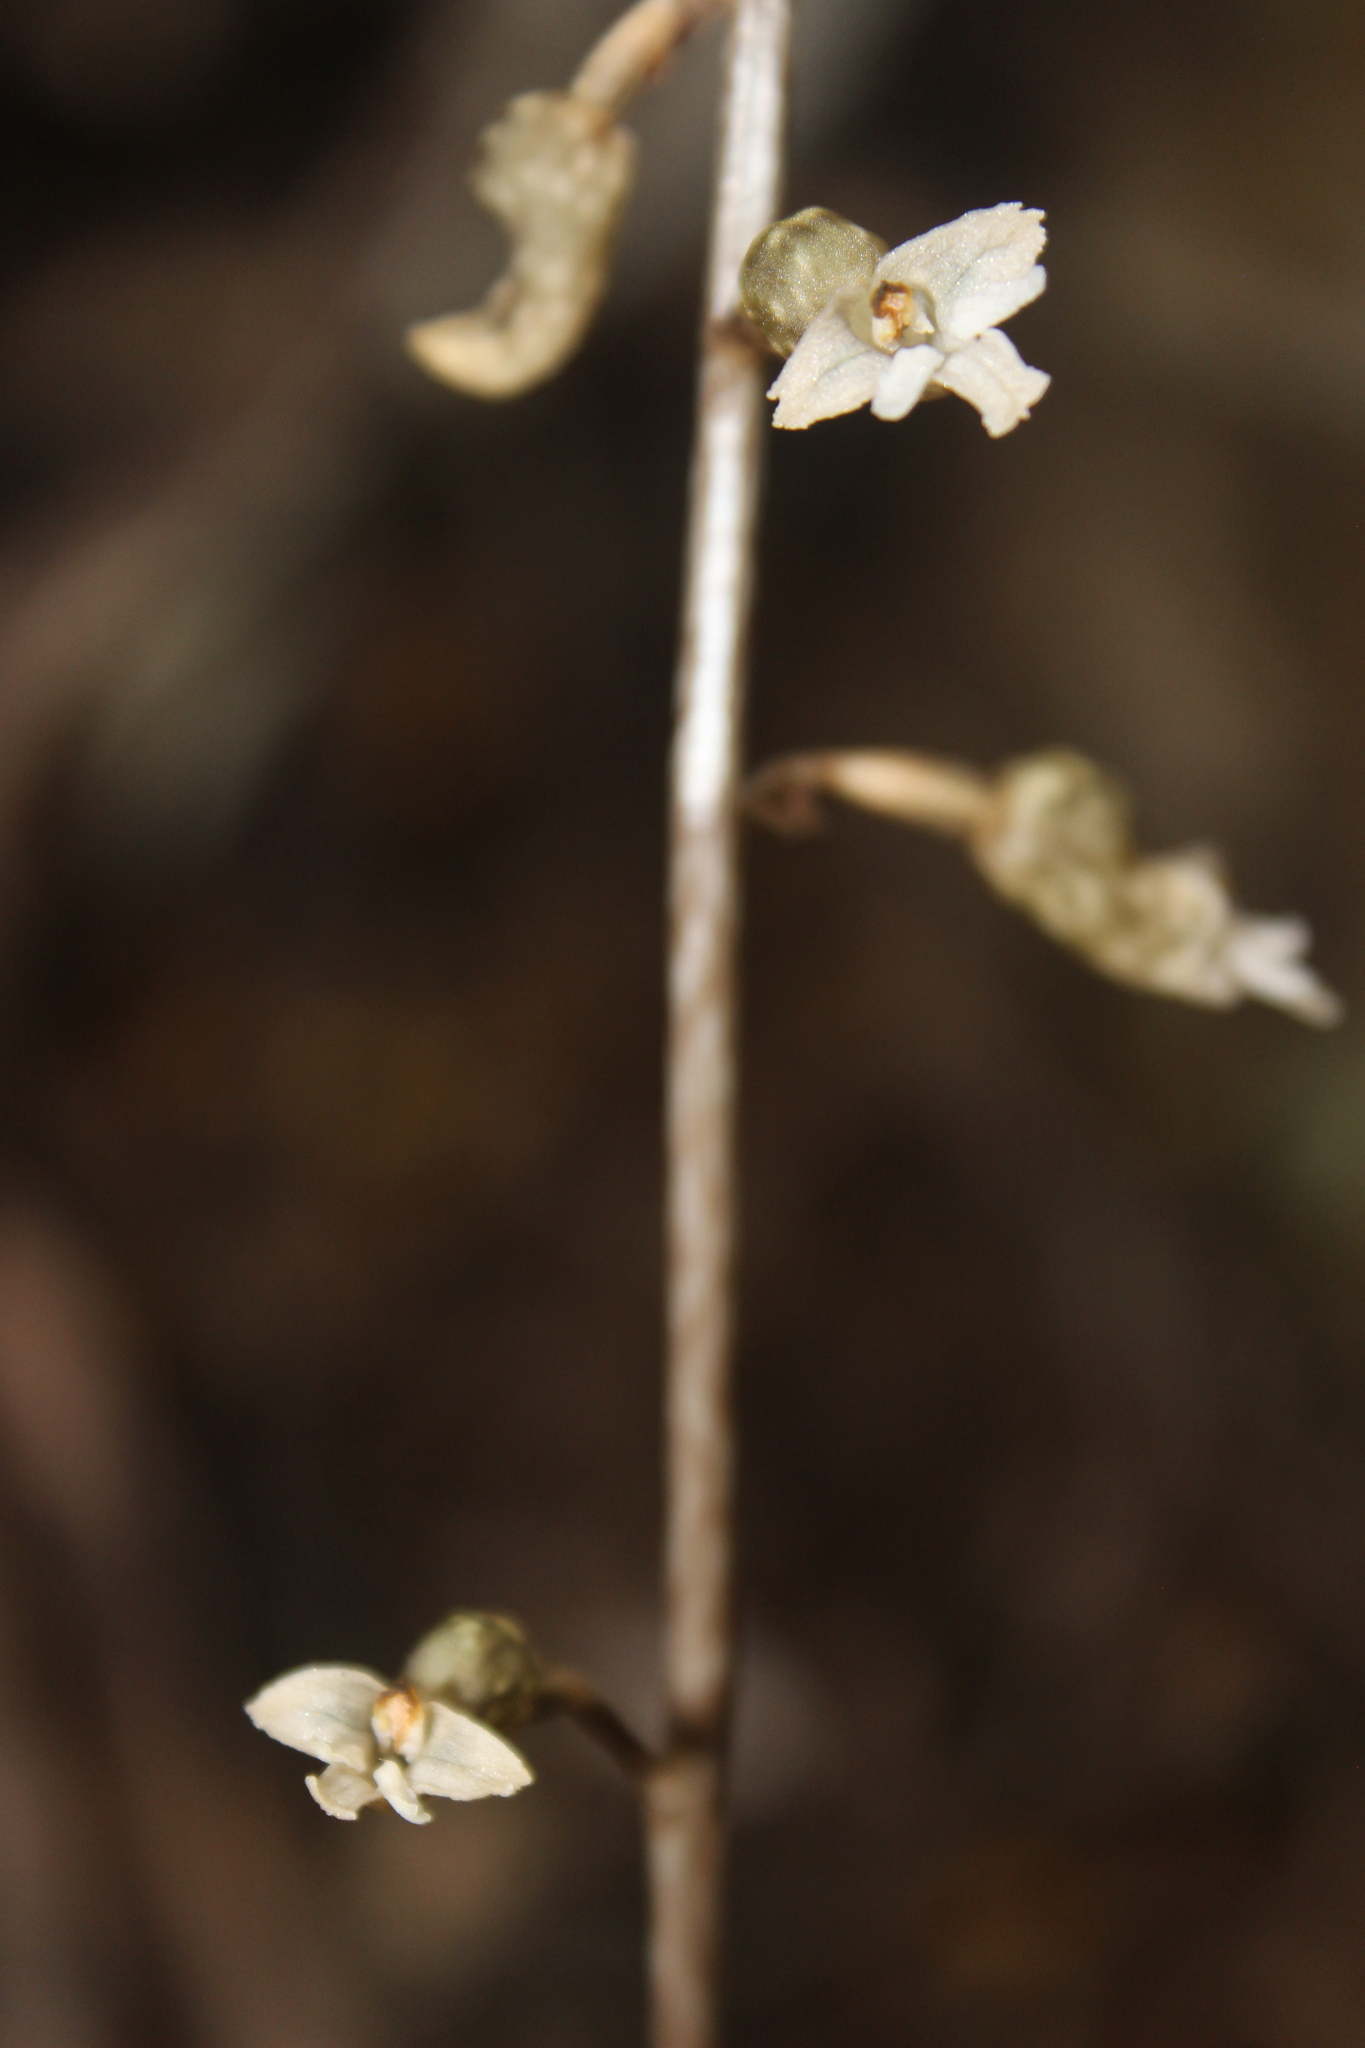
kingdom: Plantae
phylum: Tracheophyta
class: Liliopsida
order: Asparagales
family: Orchidaceae
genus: Gastrodia
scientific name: Gastrodia cunninghamii
